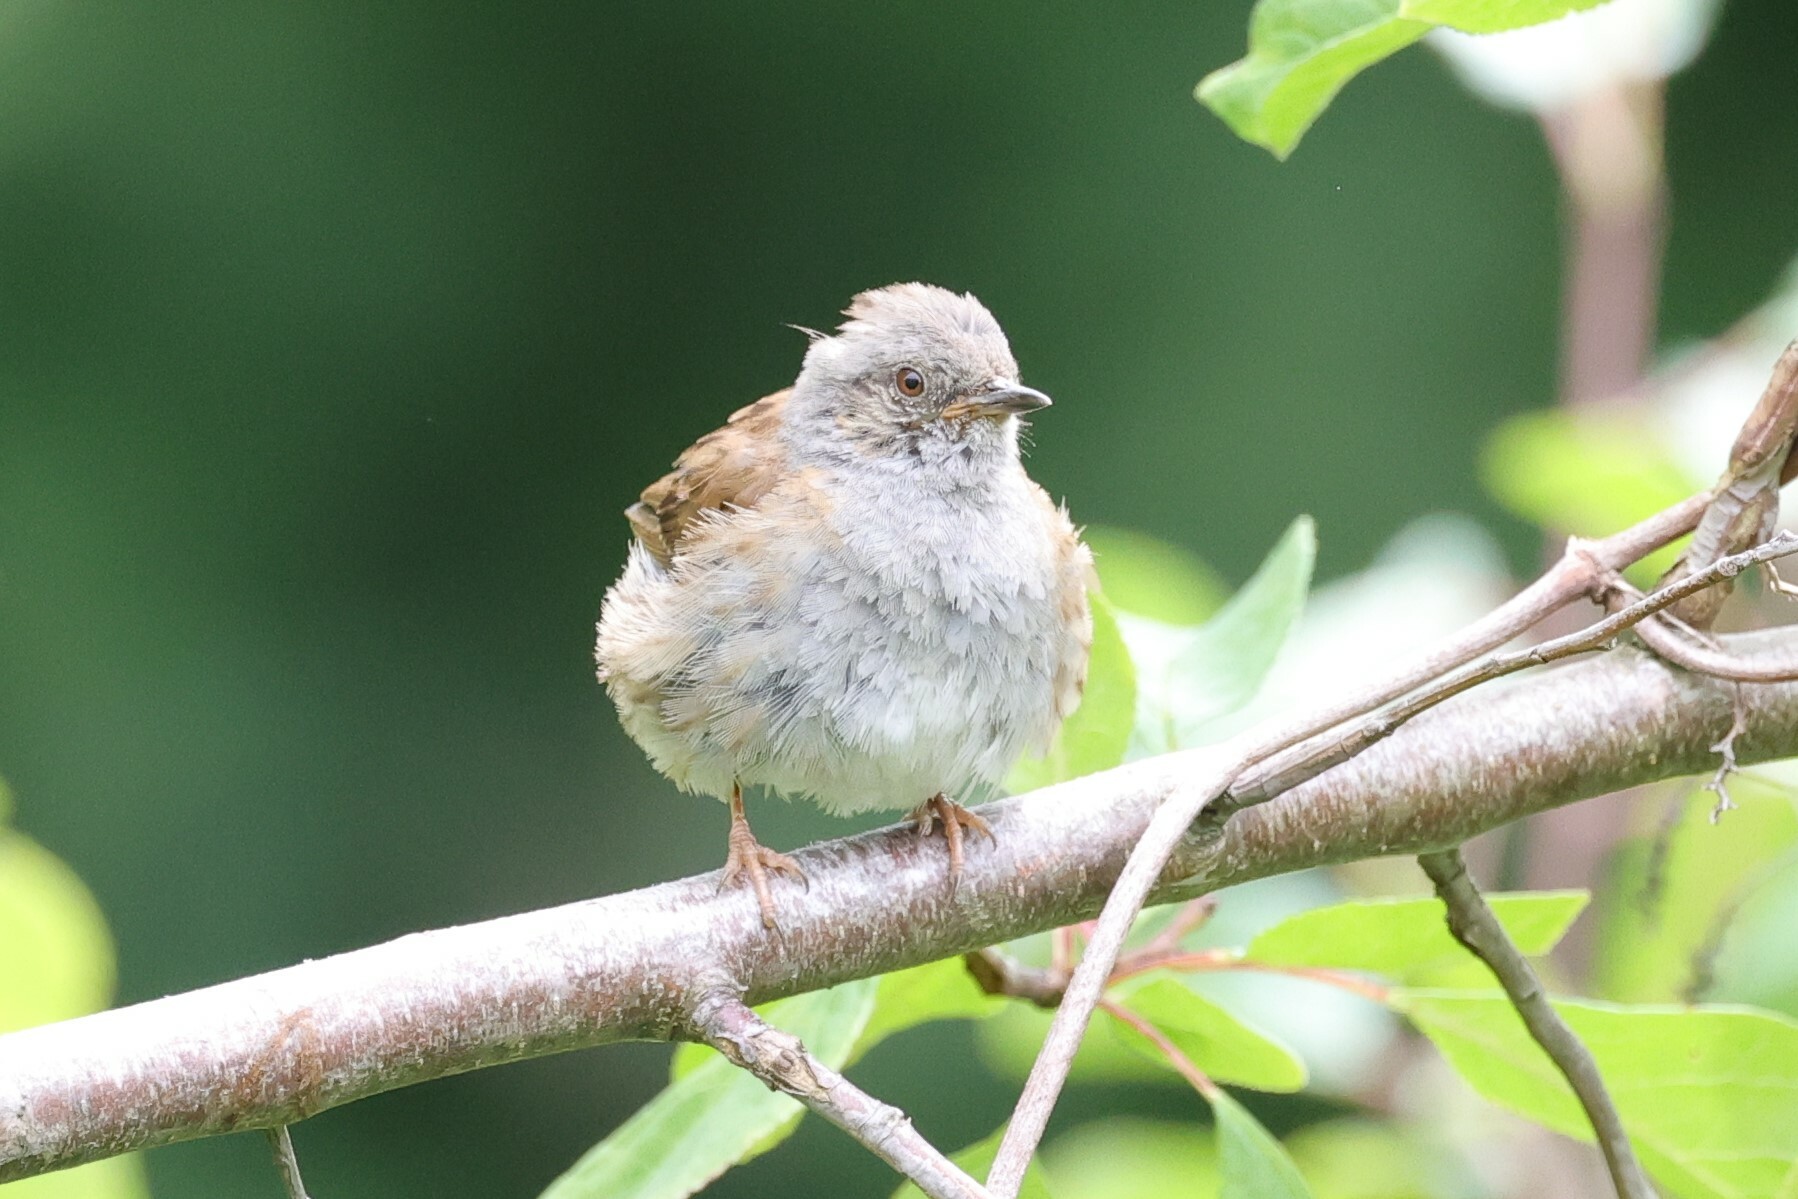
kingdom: Animalia
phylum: Chordata
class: Aves
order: Passeriformes
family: Prunellidae
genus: Prunella
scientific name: Prunella modularis
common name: Dunnock
